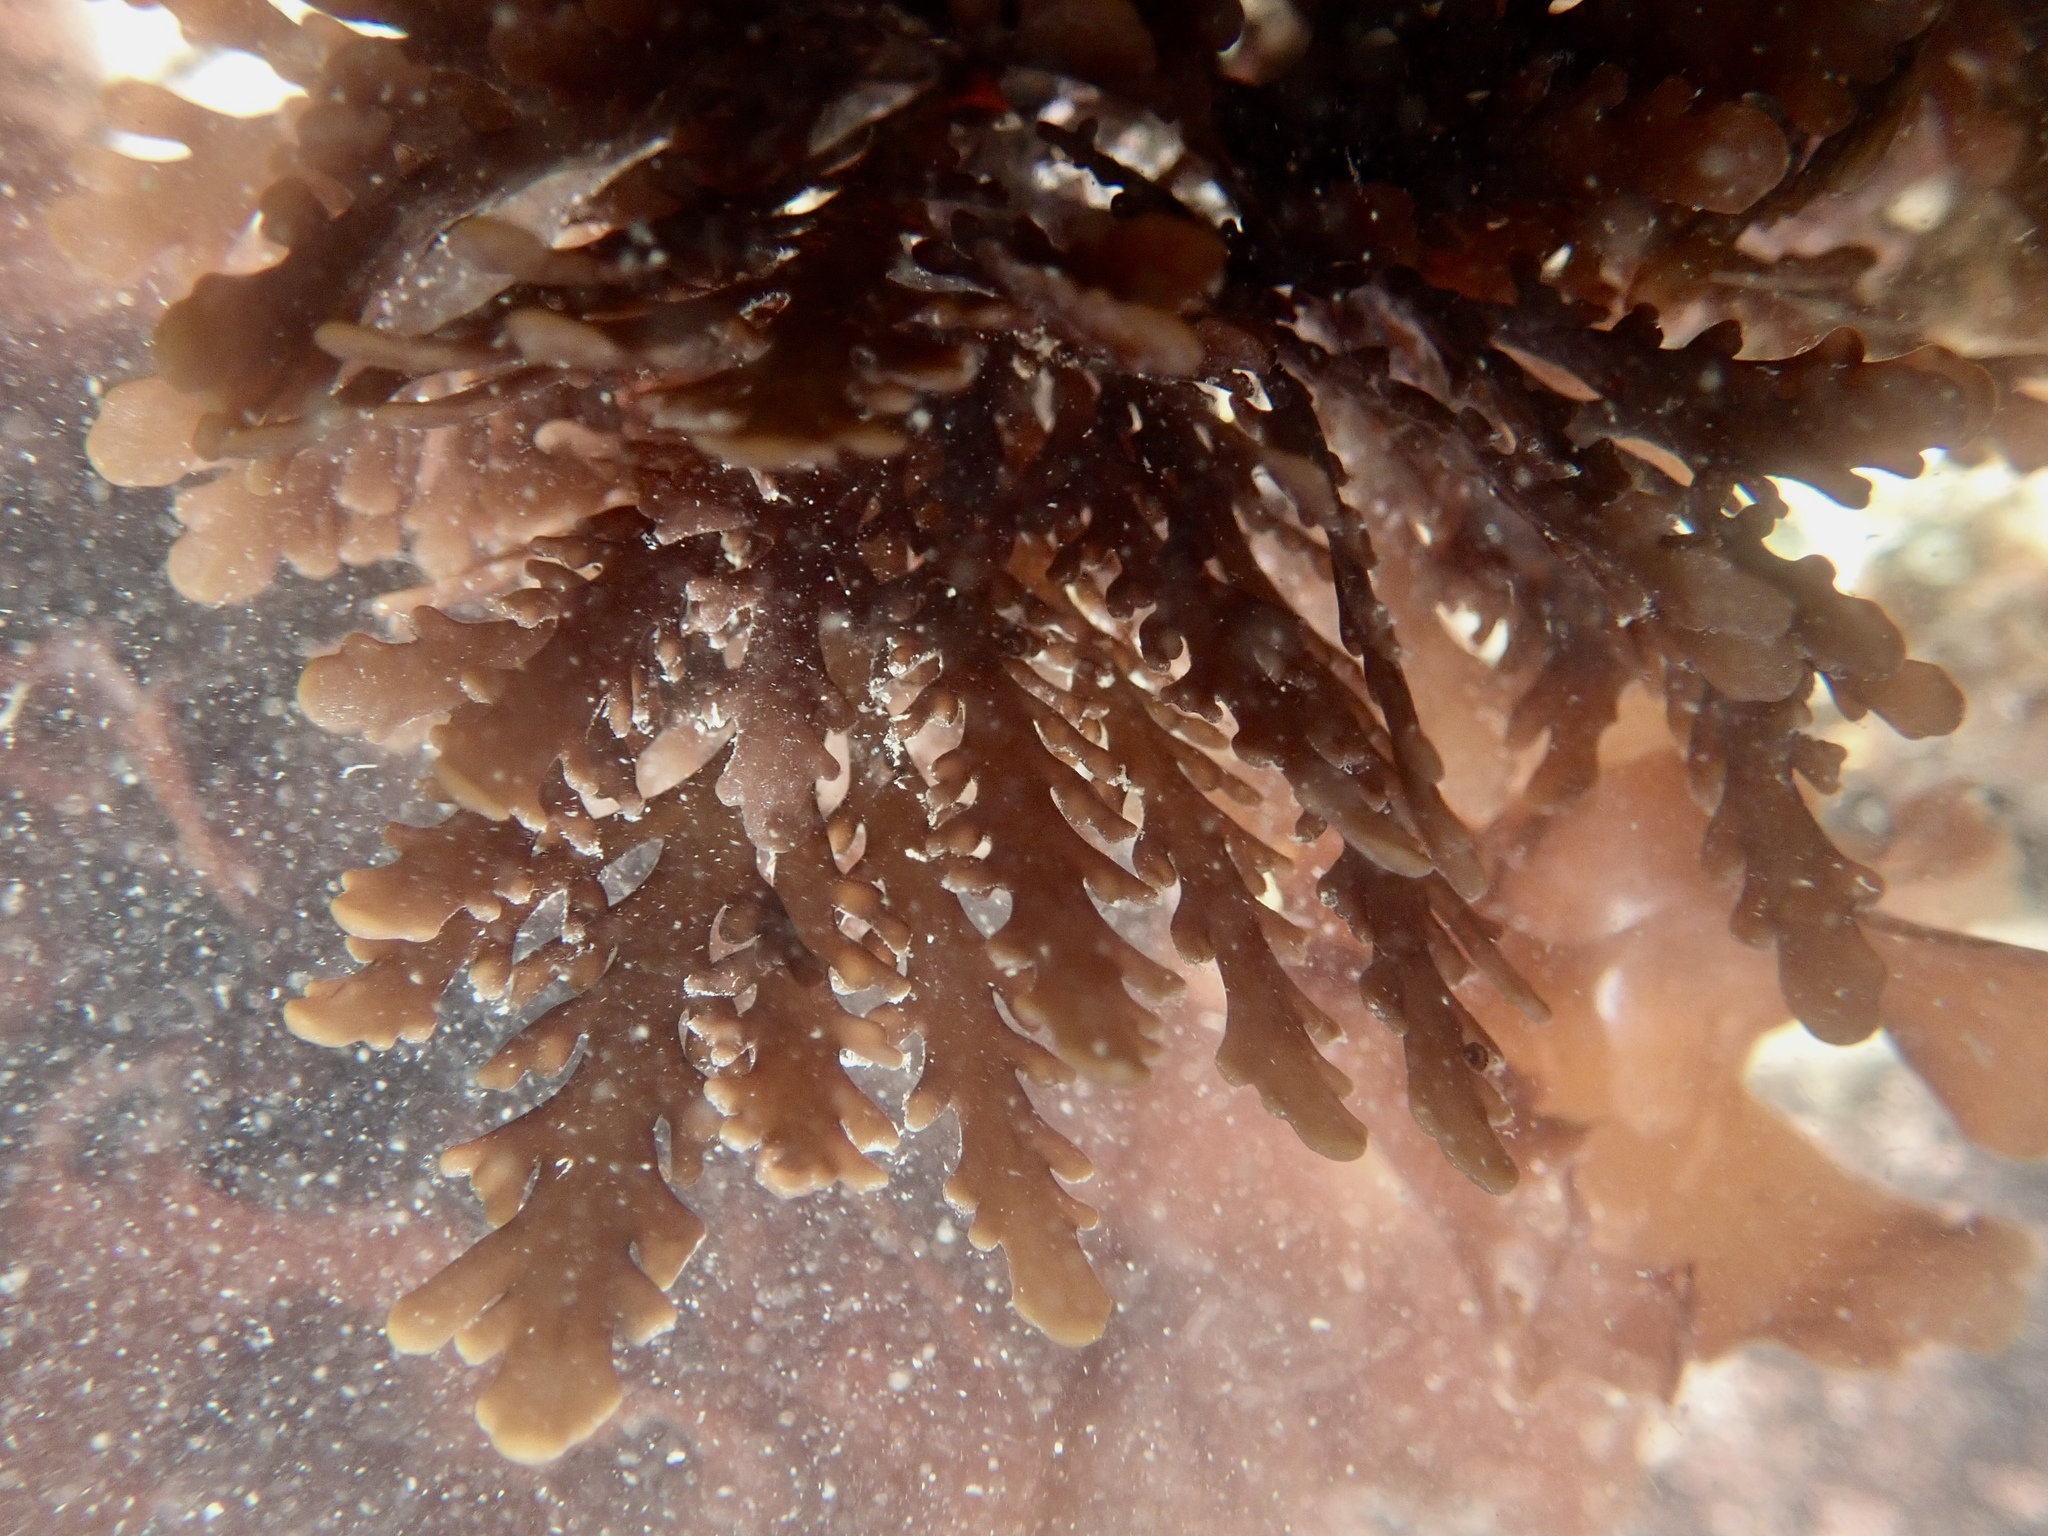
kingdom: Plantae
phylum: Rhodophyta
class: Florideophyceae
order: Ceramiales
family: Rhodomelaceae
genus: Osmundea
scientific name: Osmundea spectabilis
